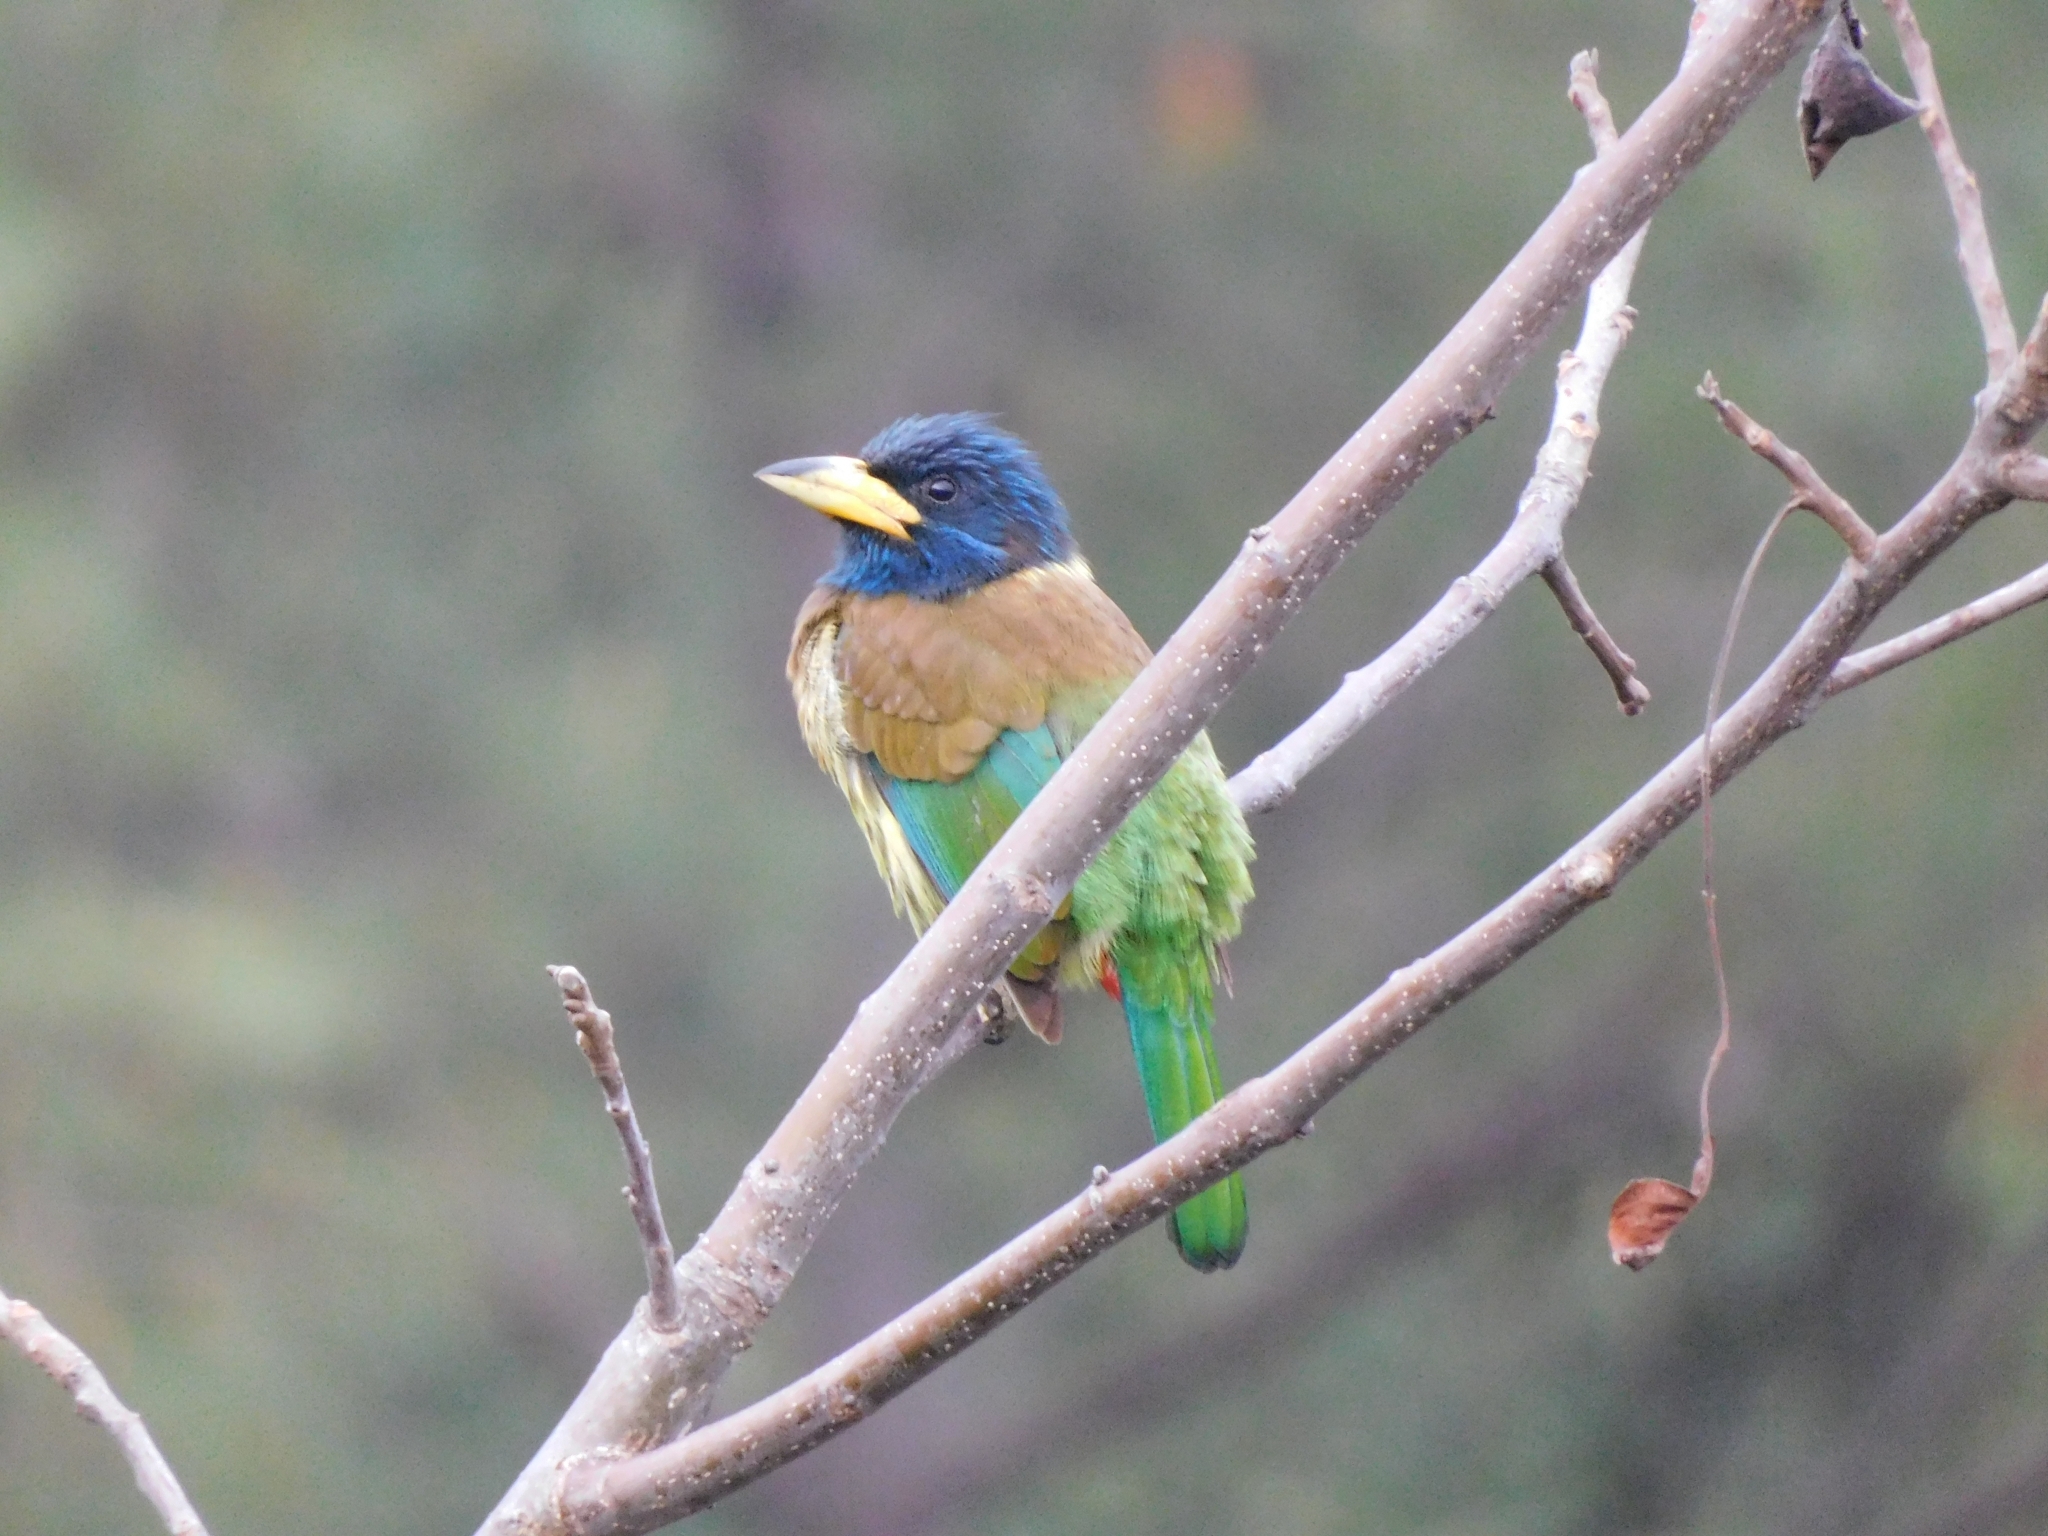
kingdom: Animalia
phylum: Chordata
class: Aves
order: Piciformes
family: Megalaimidae
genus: Psilopogon
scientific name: Psilopogon virens
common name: Great barbet
